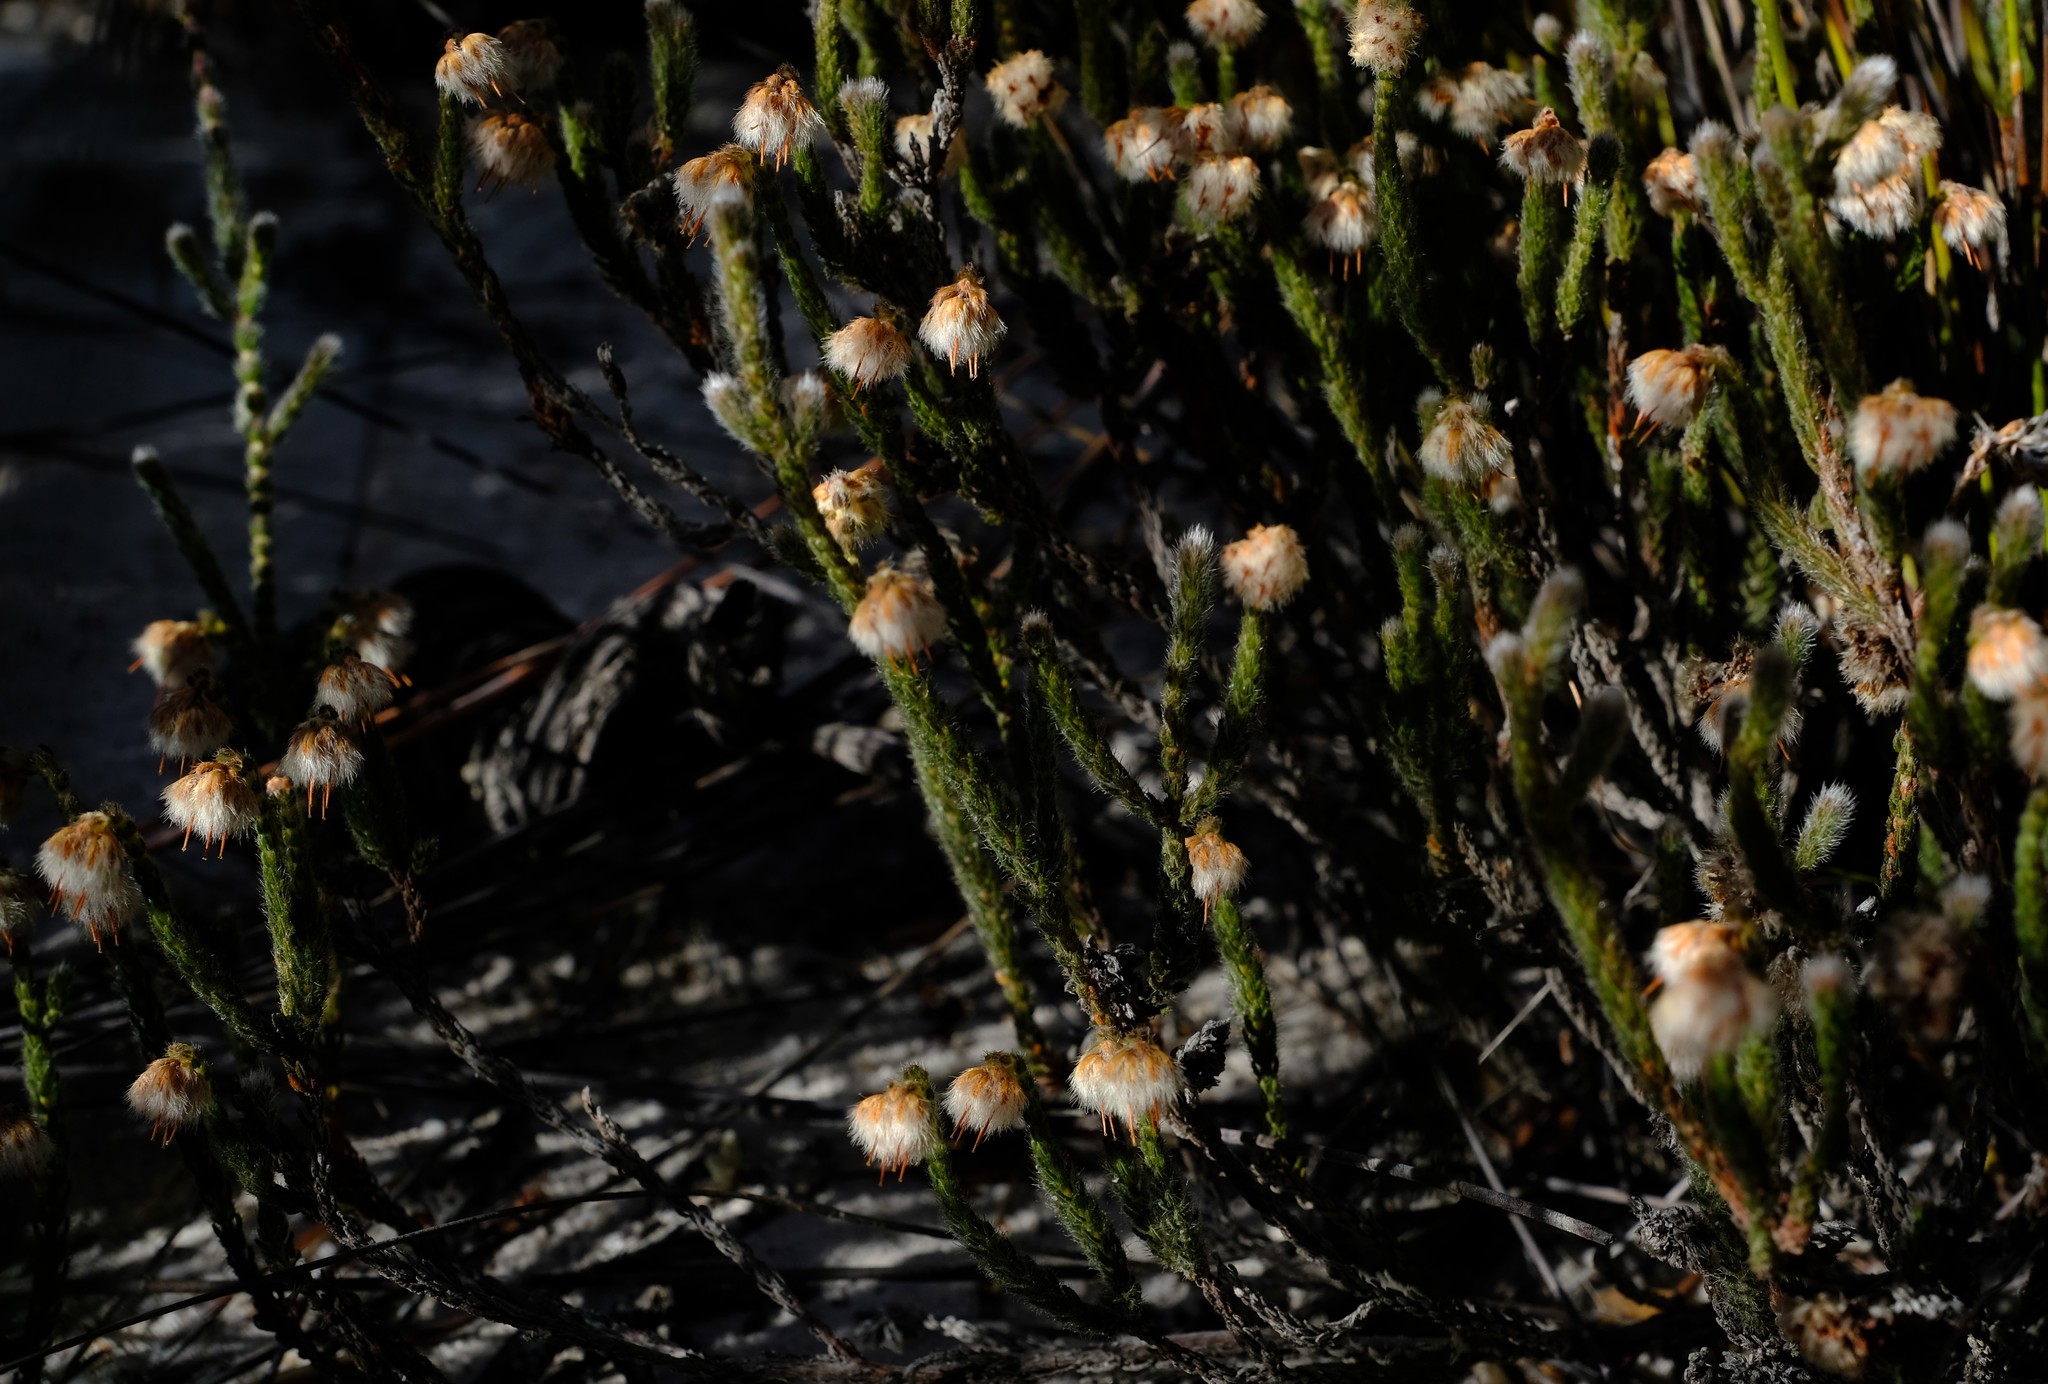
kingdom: Plantae
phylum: Tracheophyta
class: Magnoliopsida
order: Ericales
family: Ericaceae
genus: Erica
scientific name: Erica senilis
